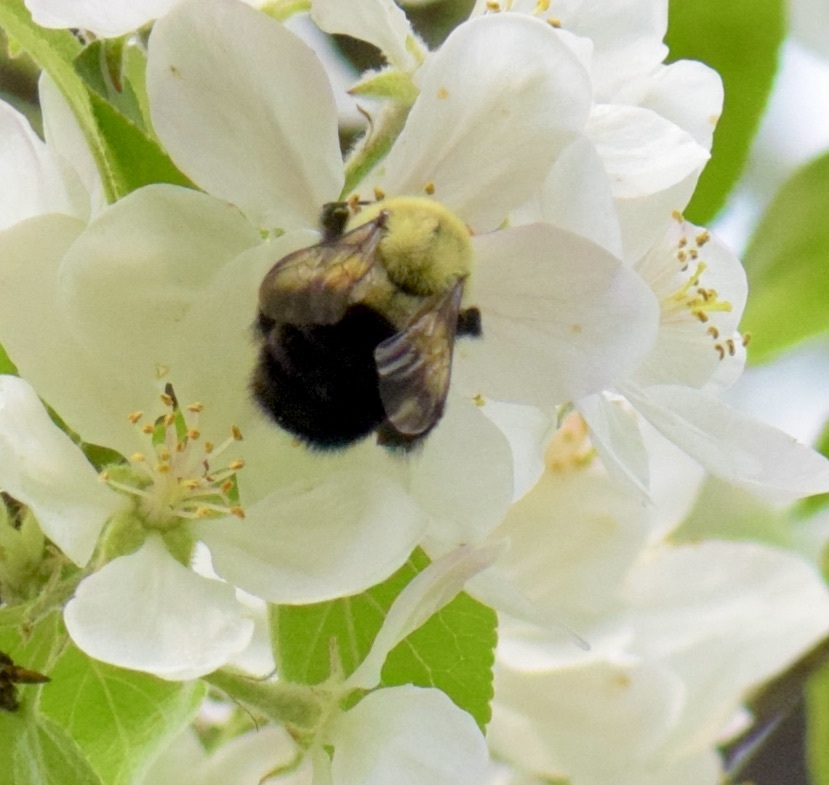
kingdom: Animalia
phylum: Arthropoda
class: Insecta
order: Hymenoptera
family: Apidae
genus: Bombus
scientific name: Bombus impatiens
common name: Common eastern bumble bee
